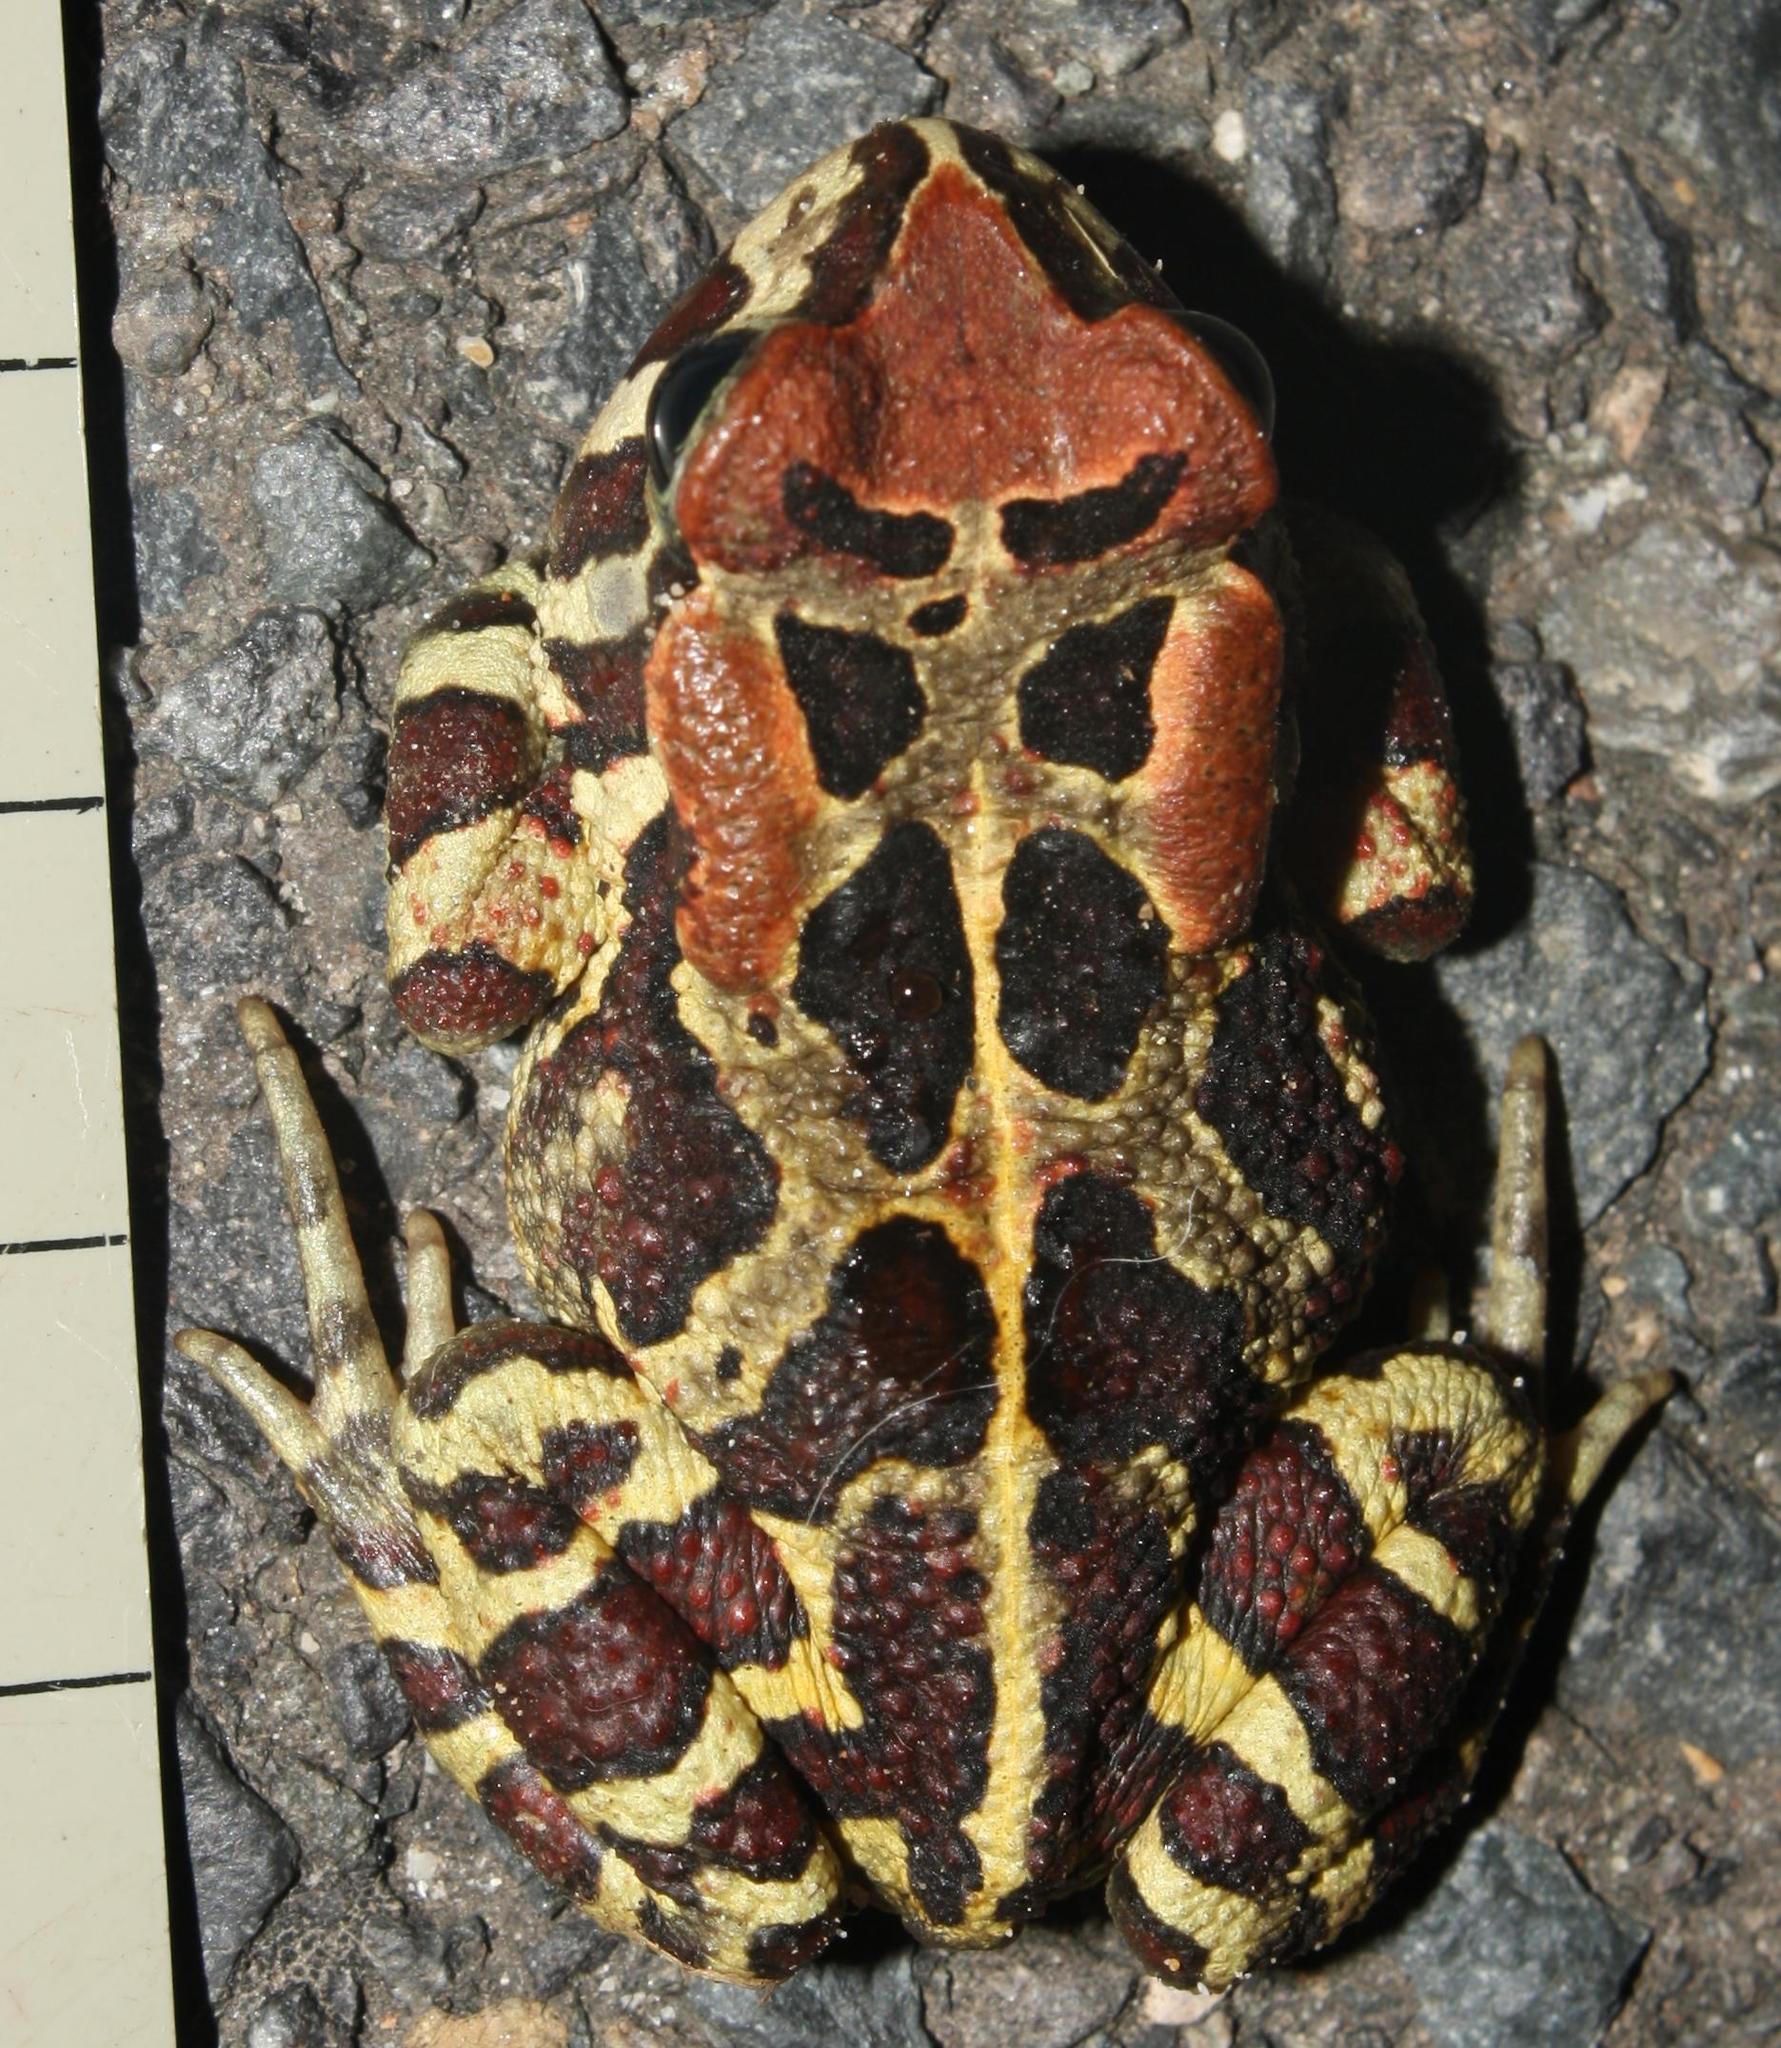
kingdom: Animalia
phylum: Chordata
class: Amphibia
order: Anura
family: Bufonidae
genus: Sclerophrys
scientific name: Sclerophrys pantherina
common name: Panther toad
